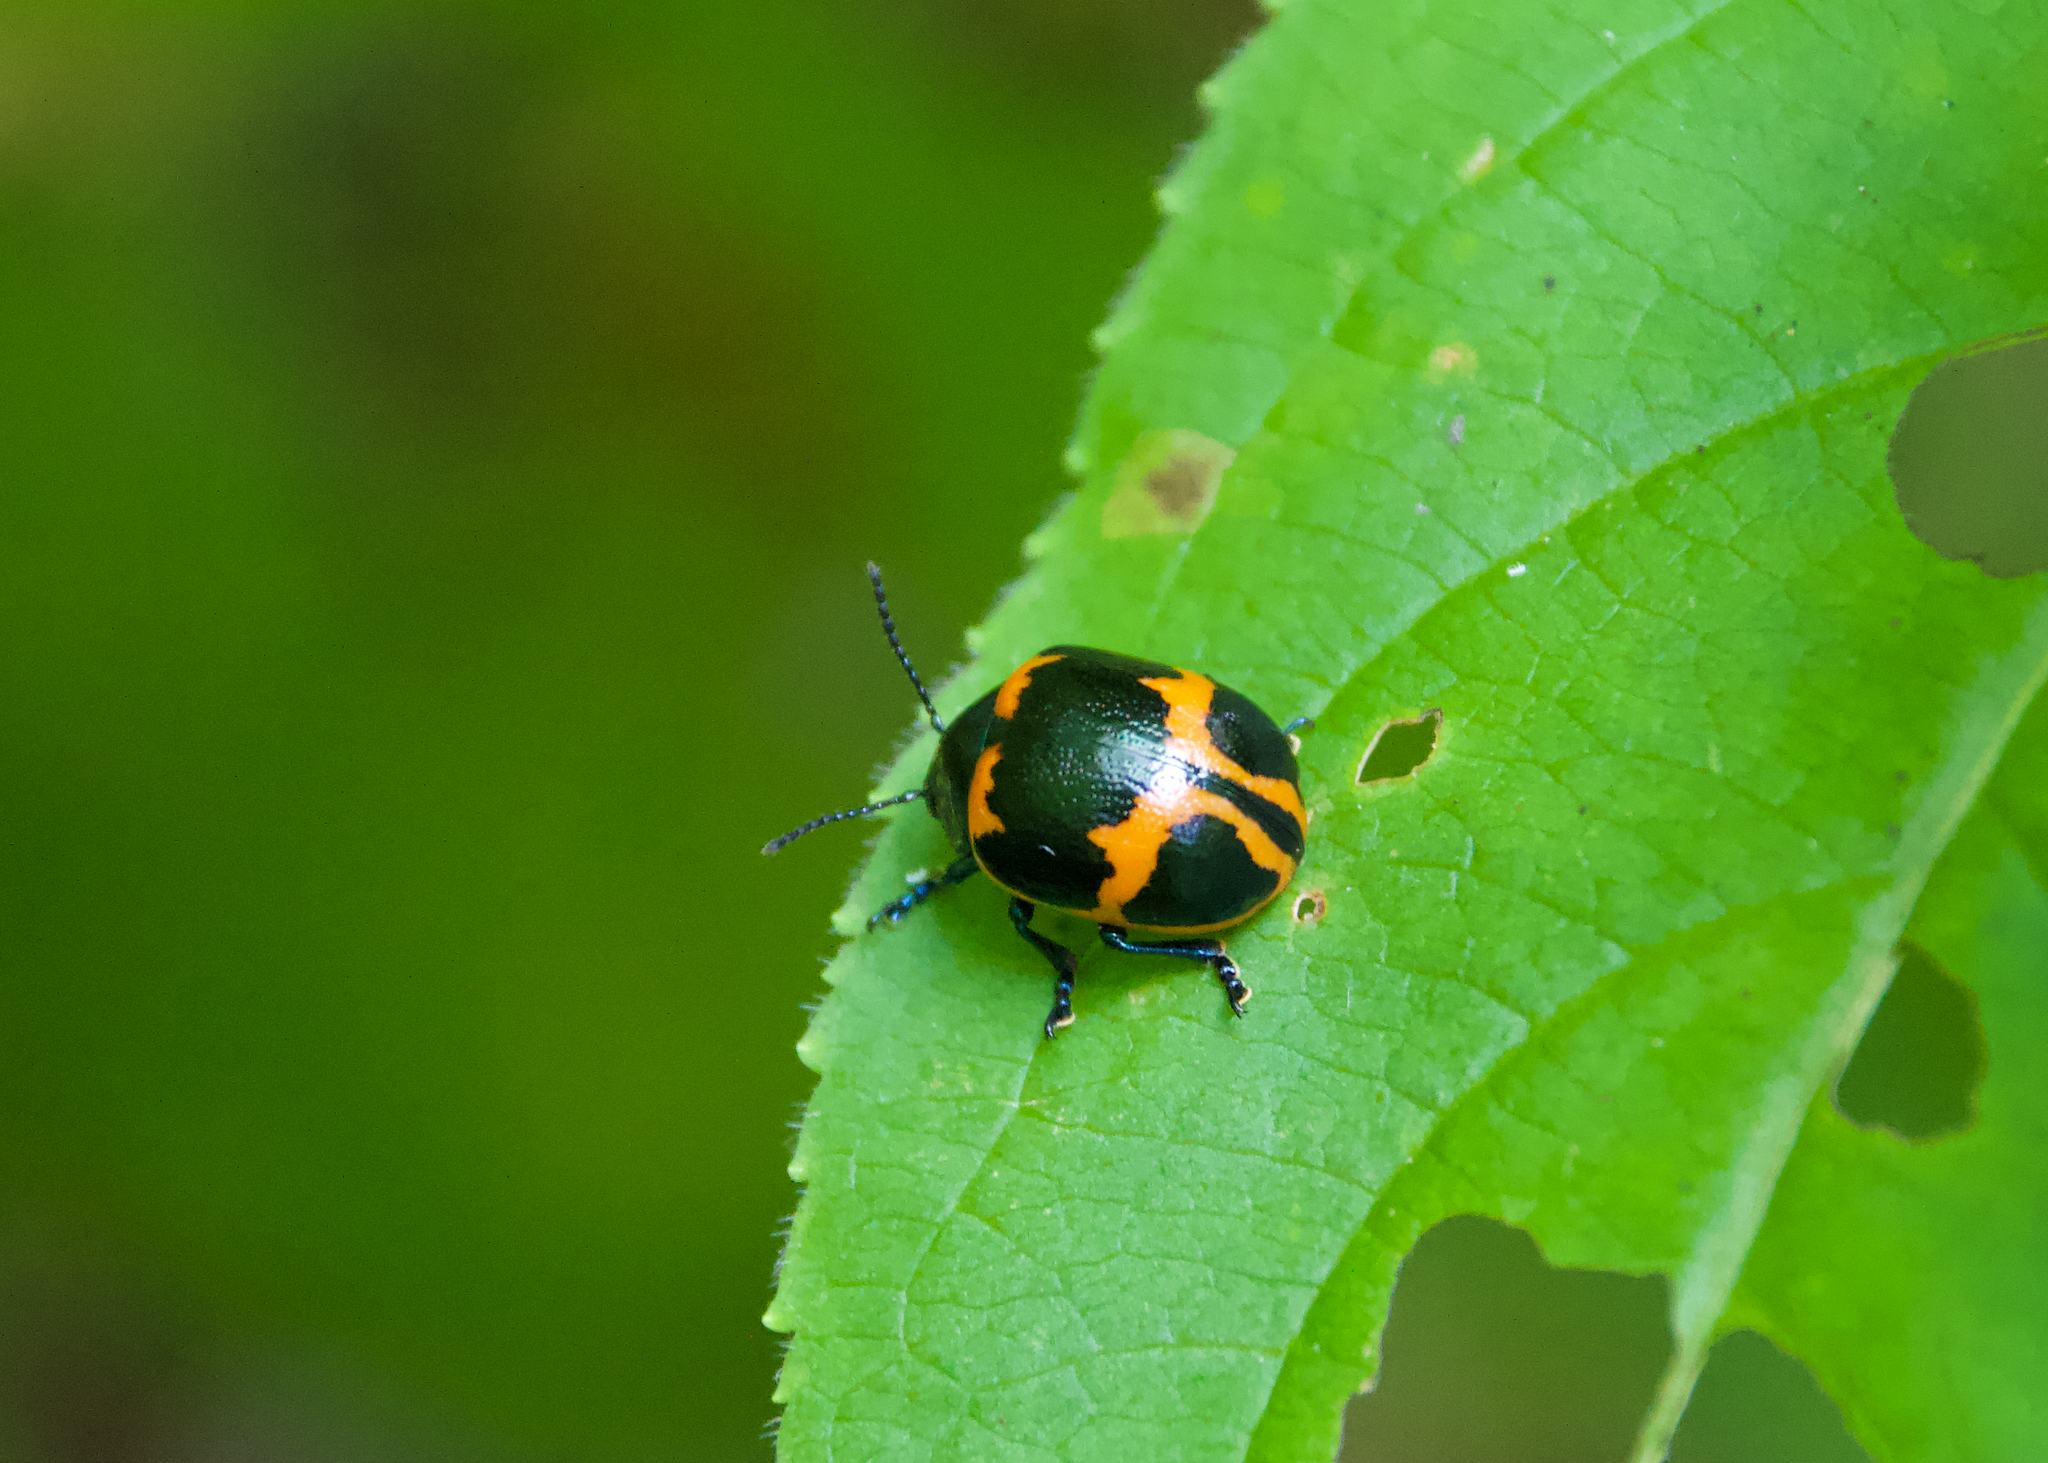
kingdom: Animalia
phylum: Arthropoda
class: Insecta
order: Coleoptera
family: Chrysomelidae
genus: Labidomera
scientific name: Labidomera clivicollis
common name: Swamp milkweed leaf beetle
